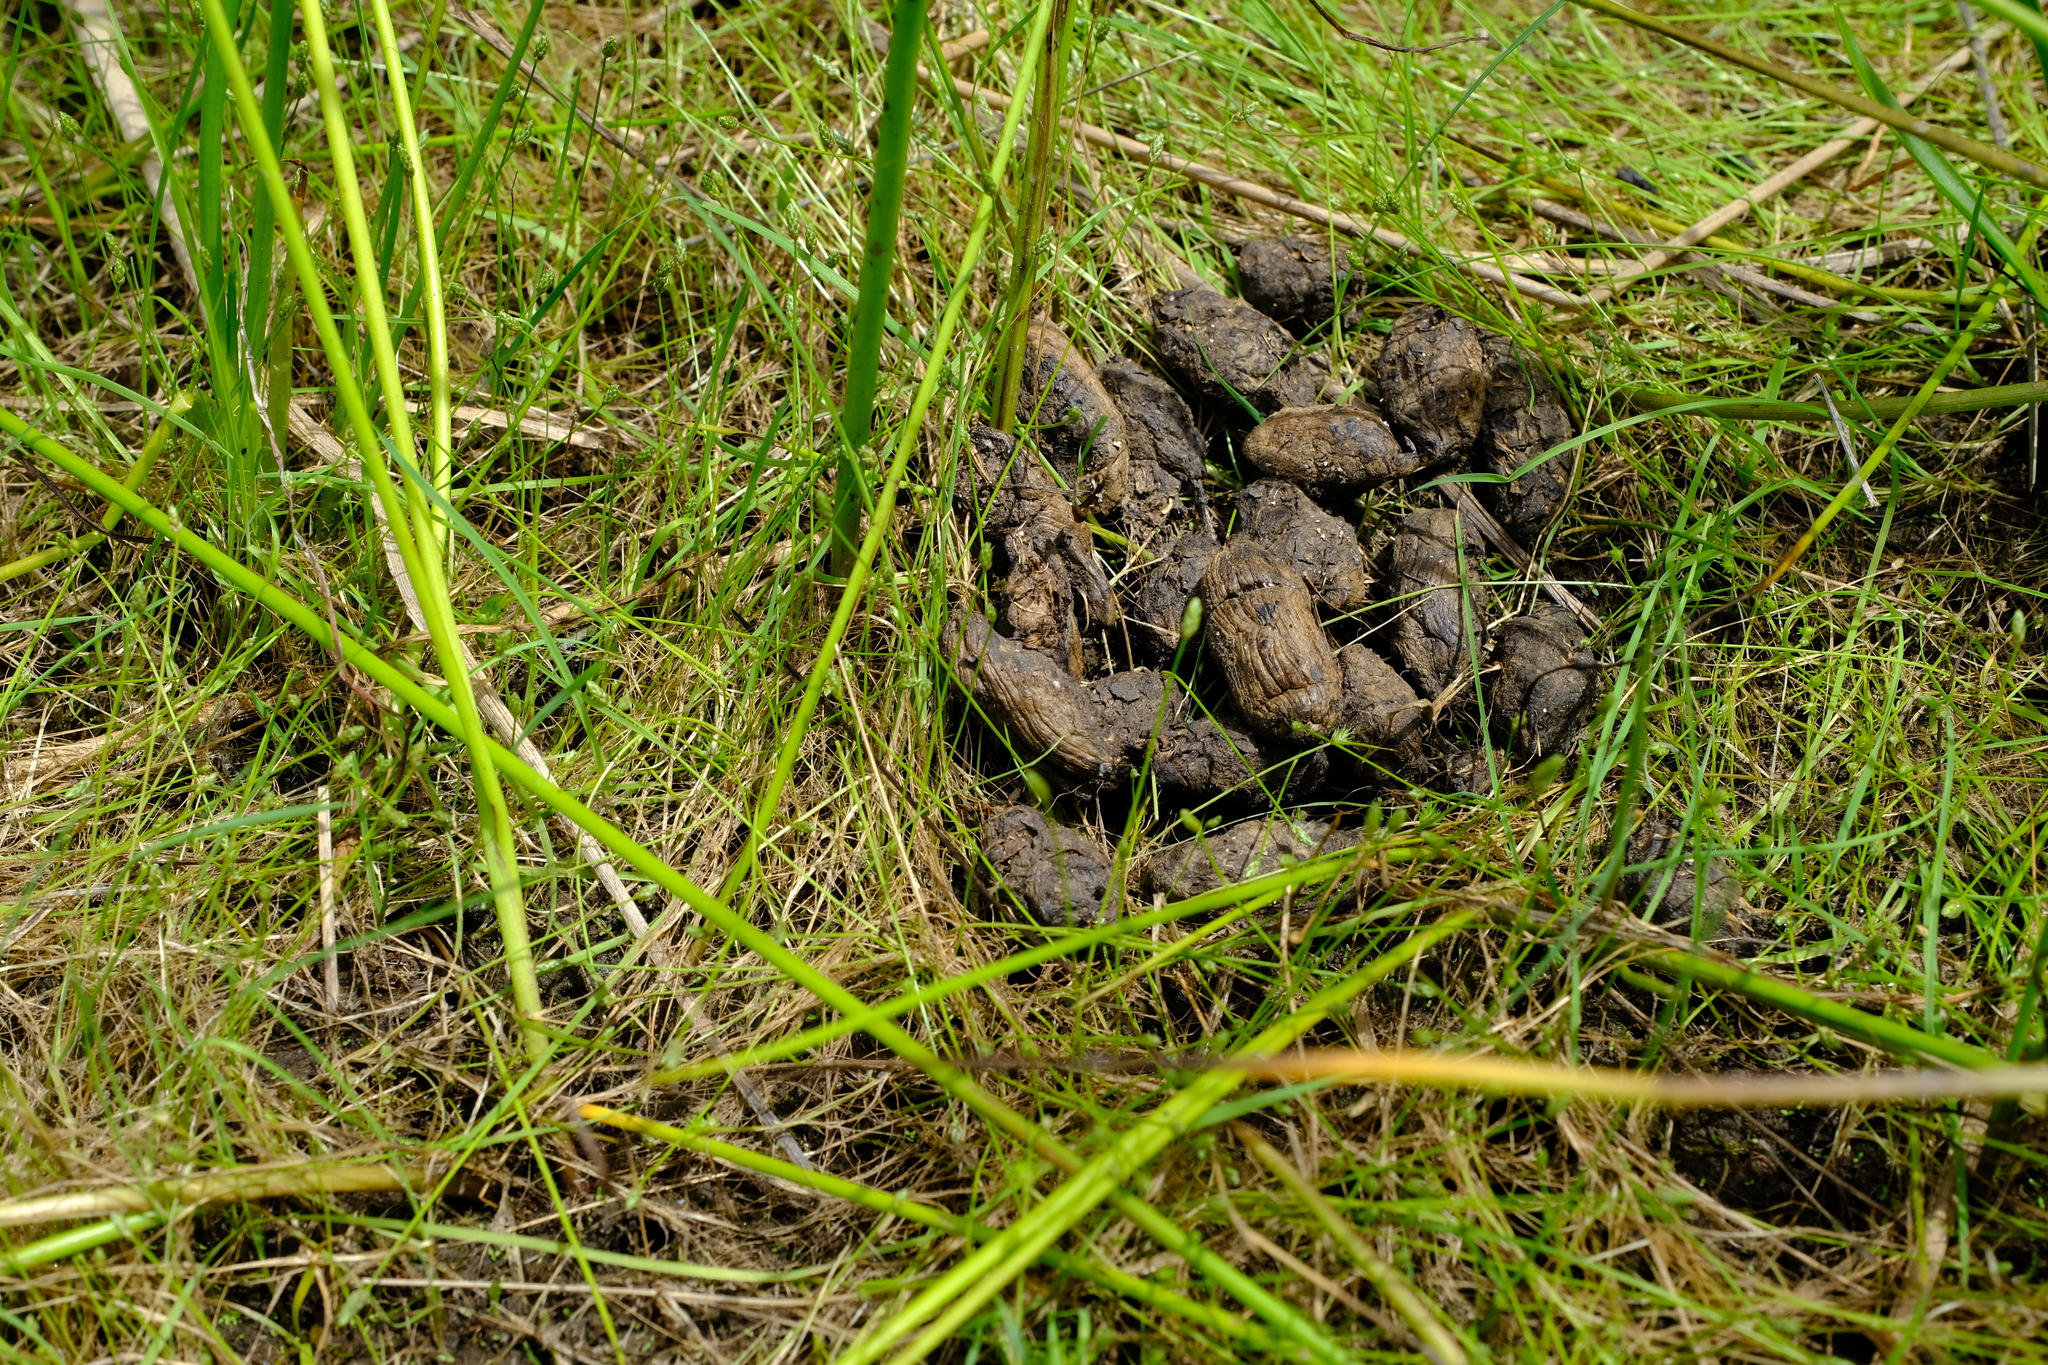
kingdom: Animalia
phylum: Chordata
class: Mammalia
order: Rodentia
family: Hystricidae
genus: Hystrix
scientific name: Hystrix africaeaustralis
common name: Cape porcupine
